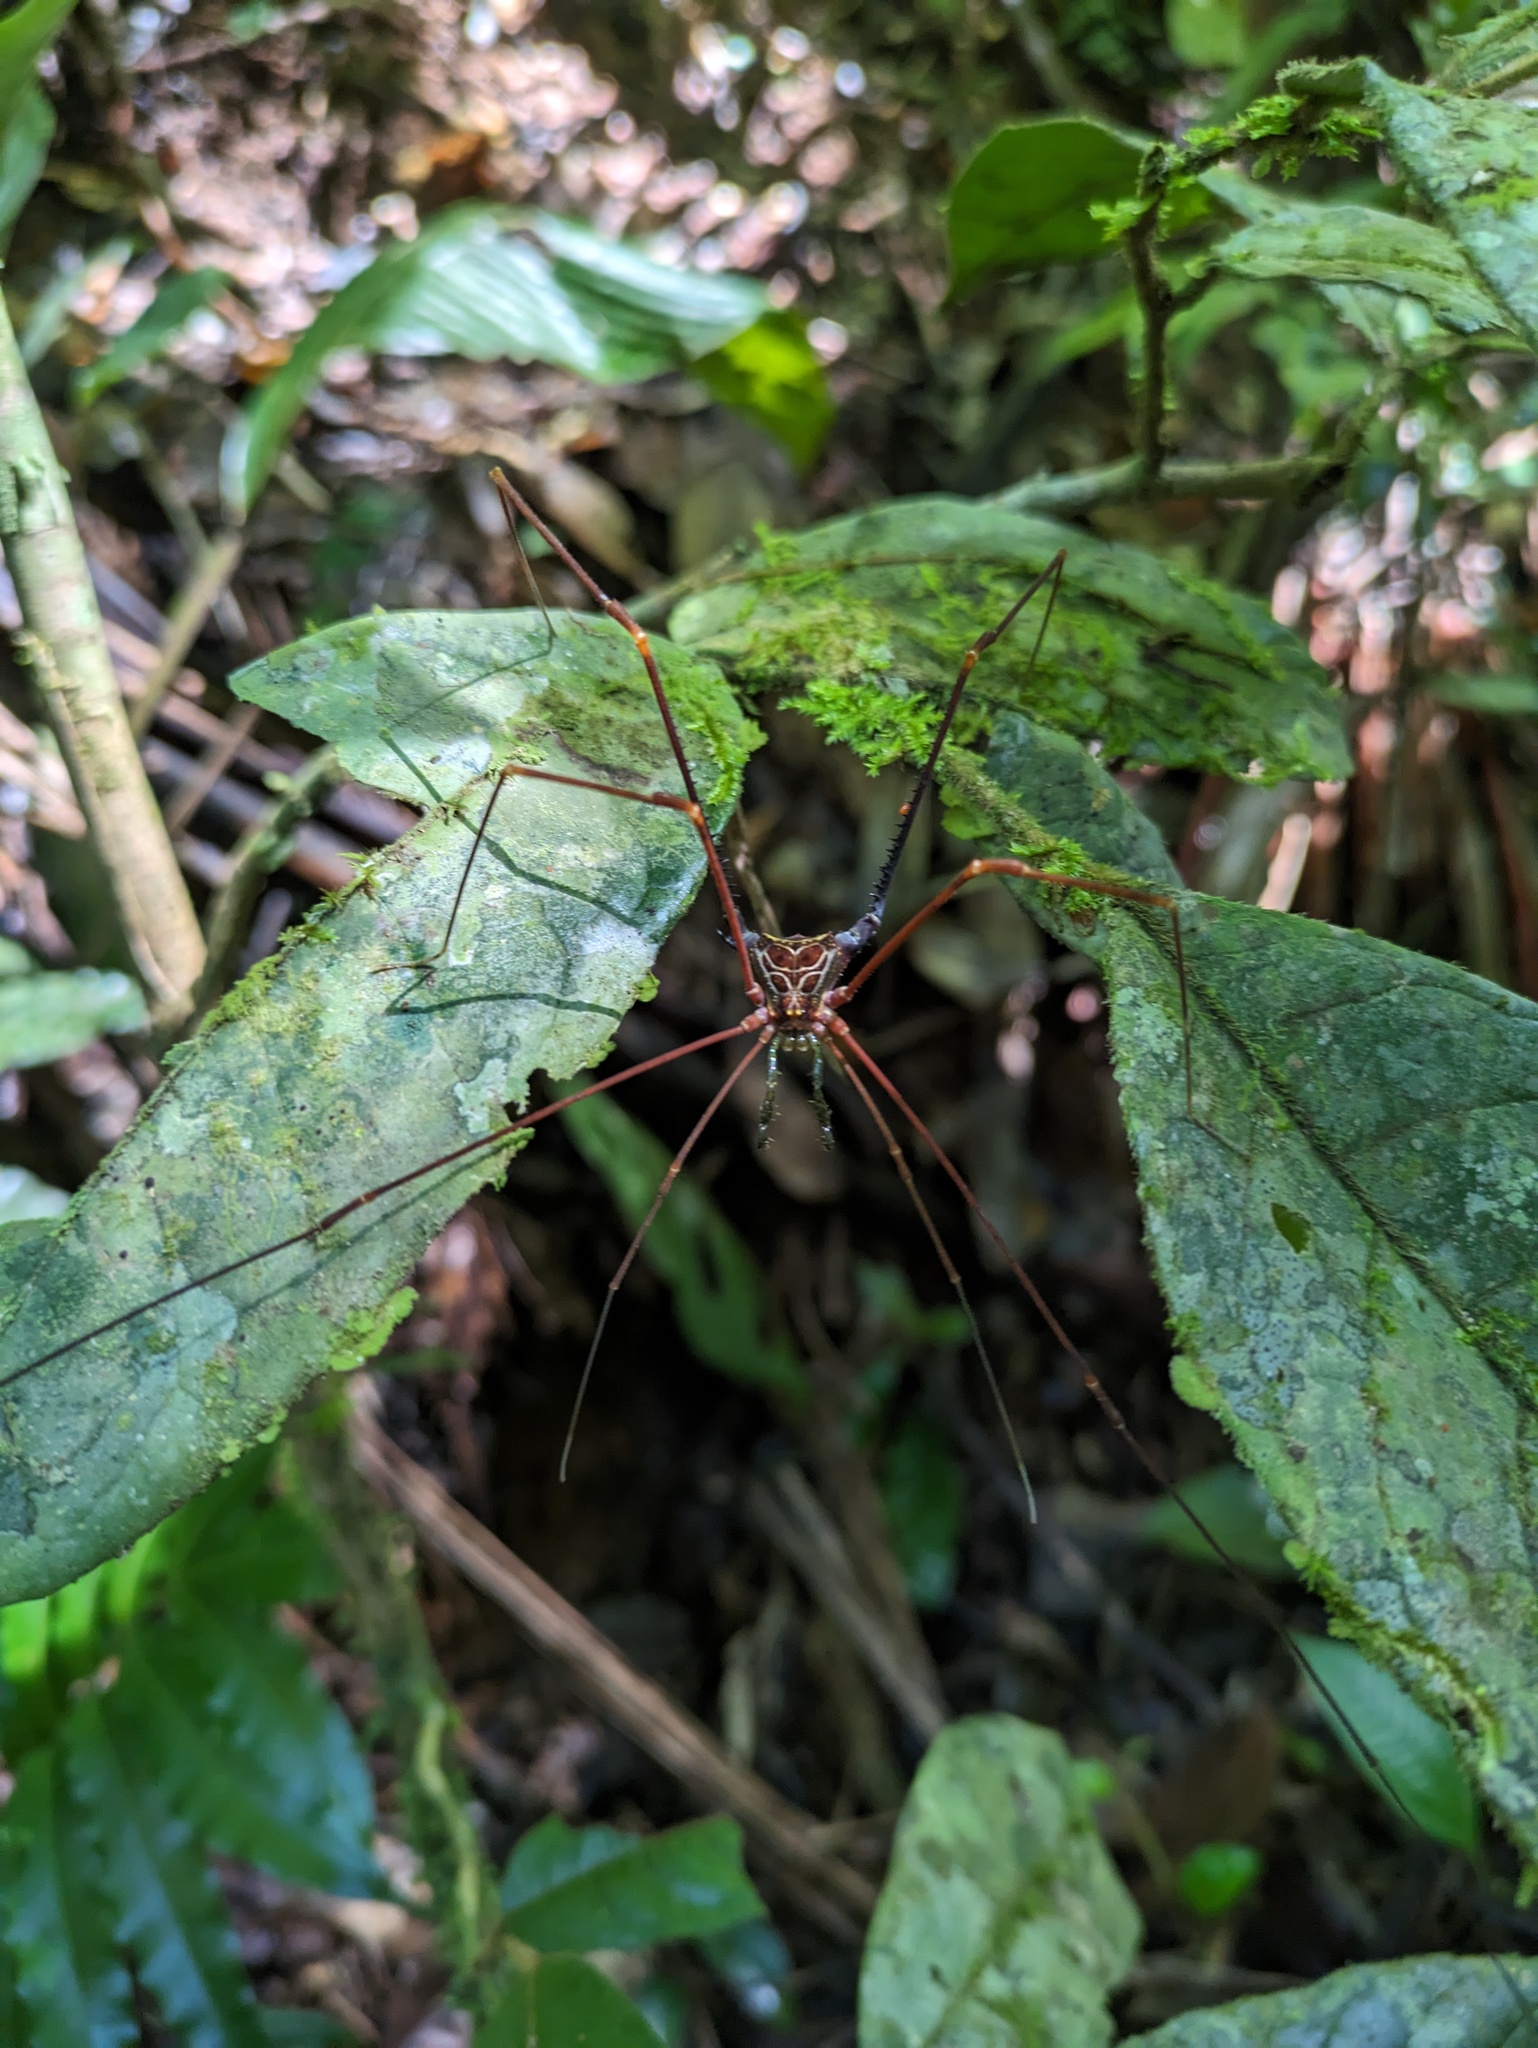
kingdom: Animalia
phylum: Arthropoda
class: Arachnida
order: Opiliones
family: Gonyleptidae
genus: Serracutisoma
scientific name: Serracutisoma proximum
